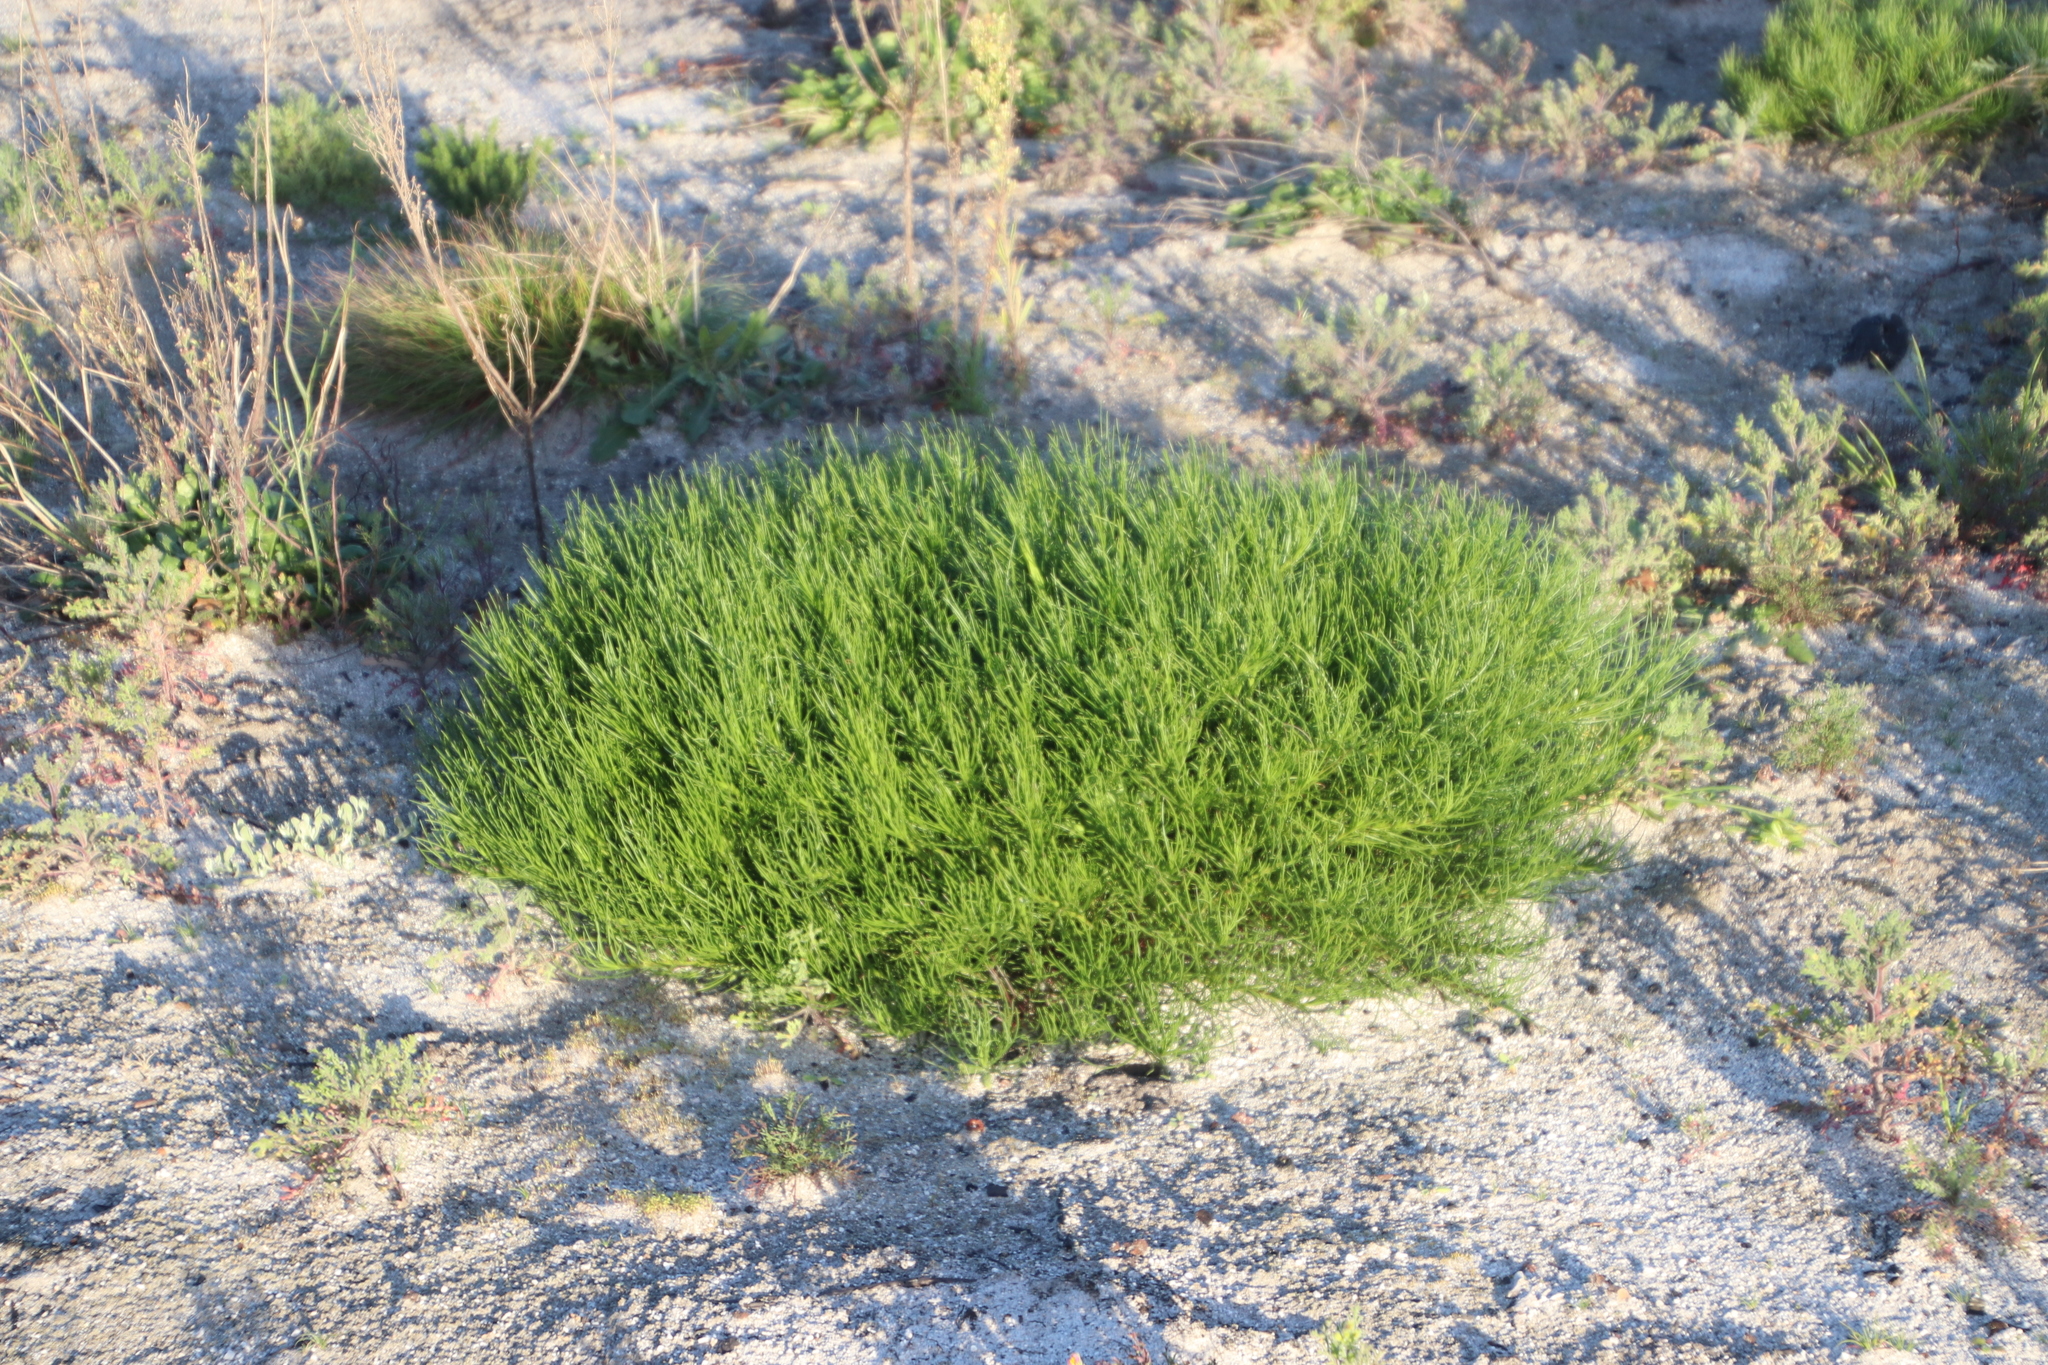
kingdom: Plantae
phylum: Tracheophyta
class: Magnoliopsida
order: Asterales
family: Asteraceae
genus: Senecio
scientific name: Senecio umbellatus
